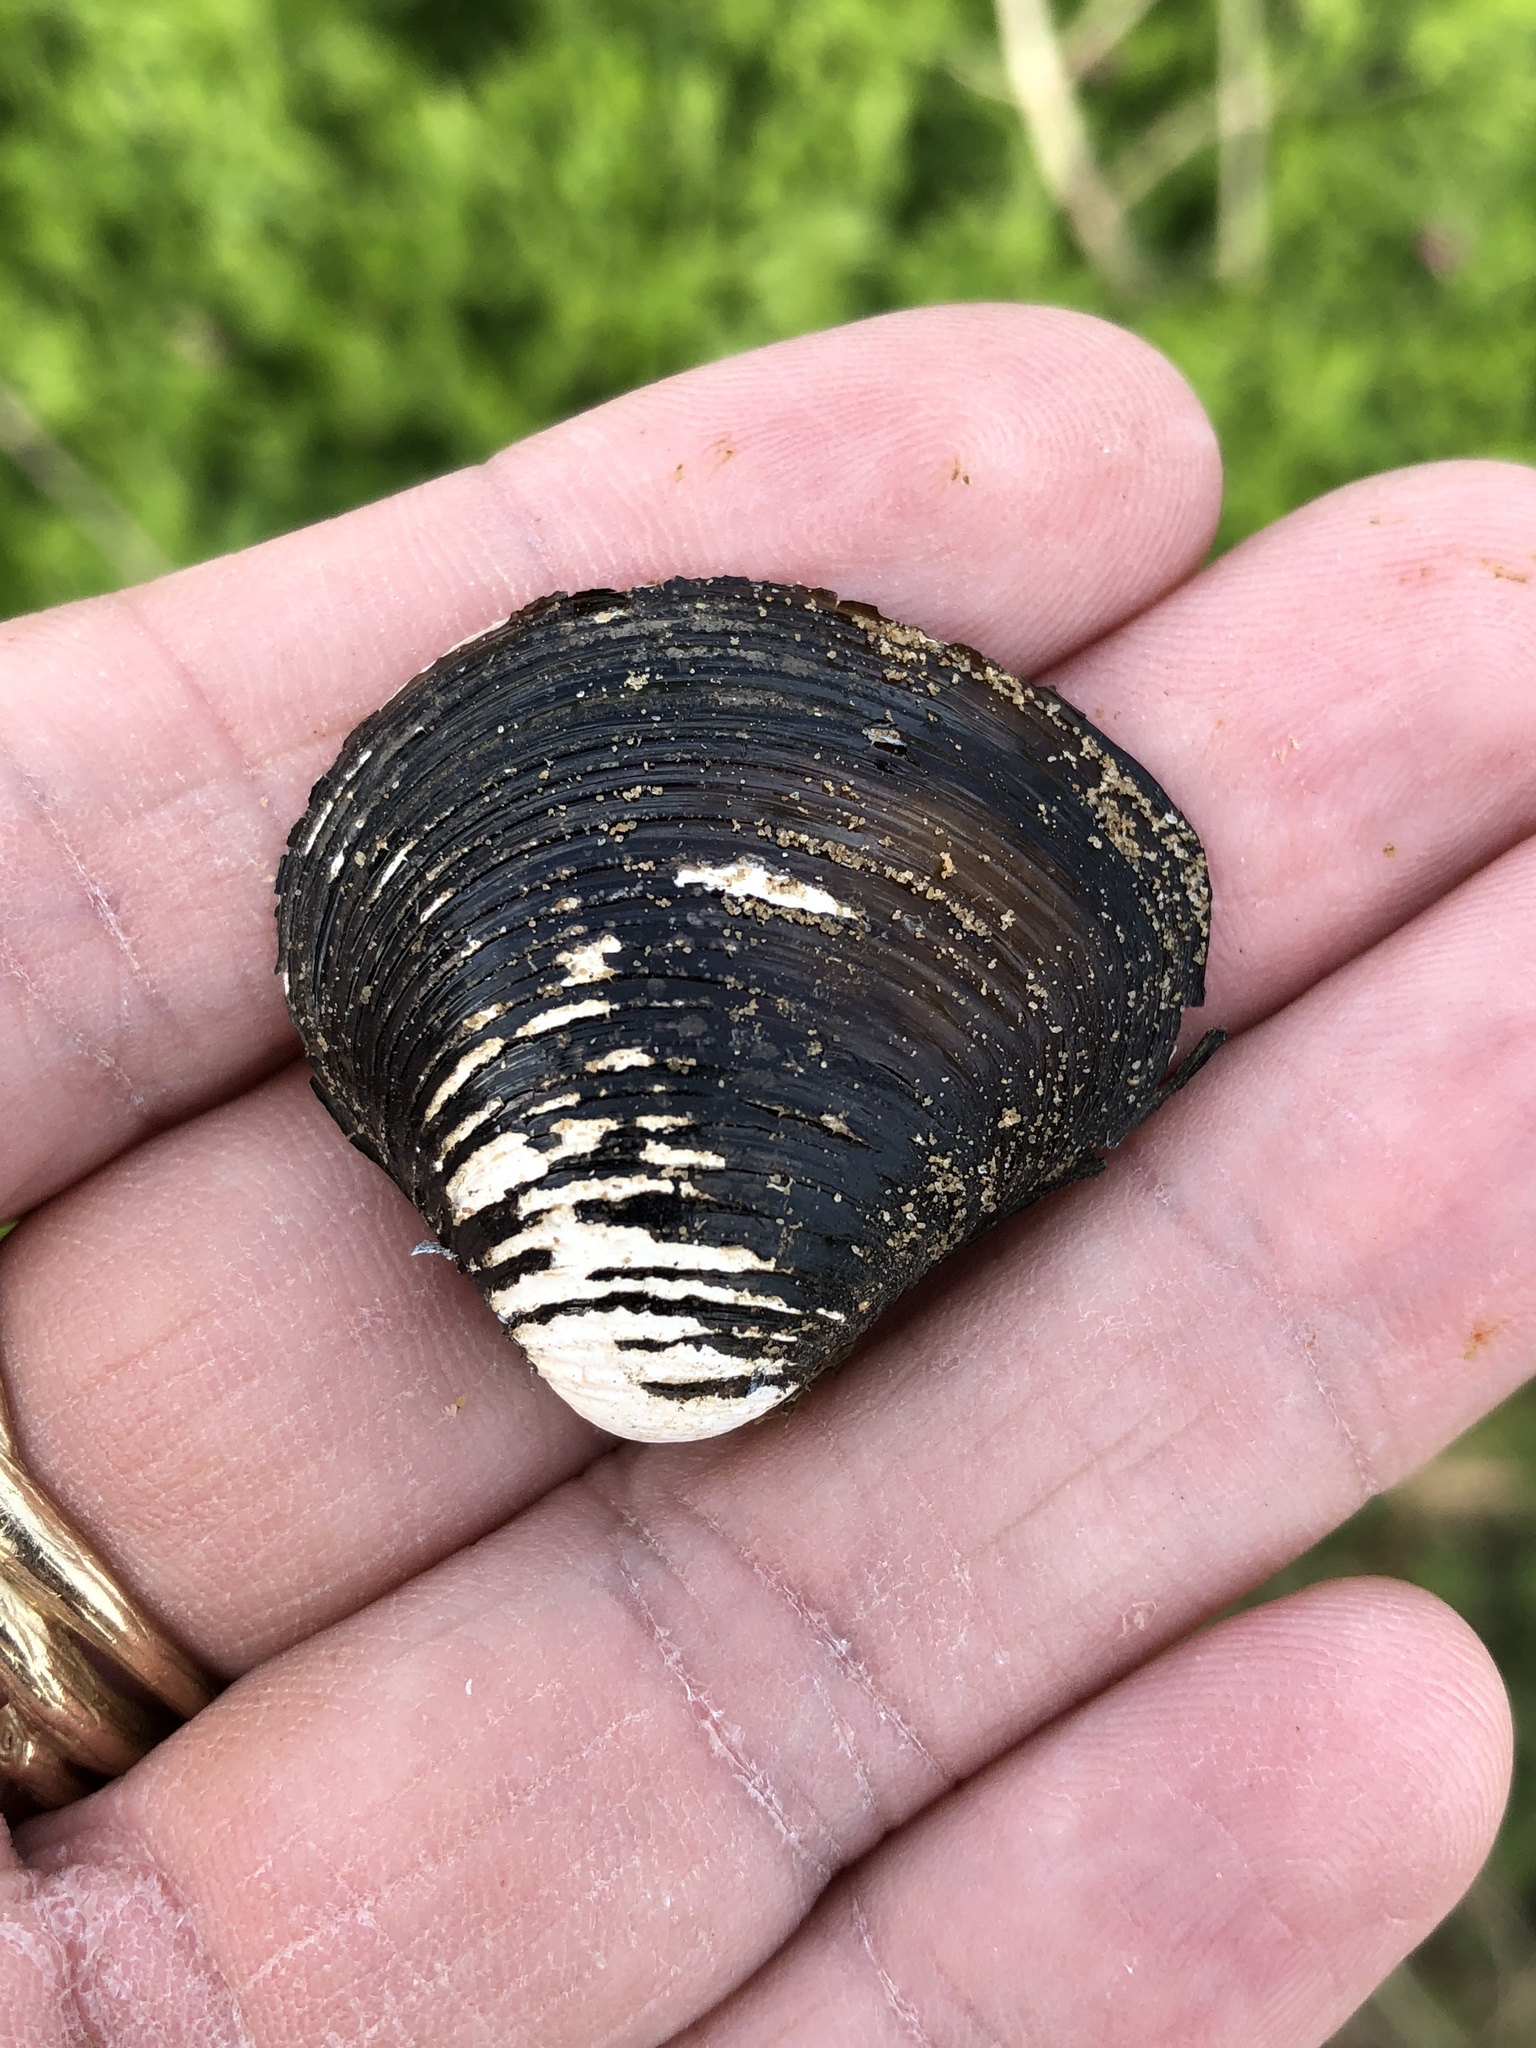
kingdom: Animalia
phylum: Mollusca
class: Bivalvia
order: Venerida
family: Cyrenidae
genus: Corbicula
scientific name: Corbicula fluminea
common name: Asian clam
